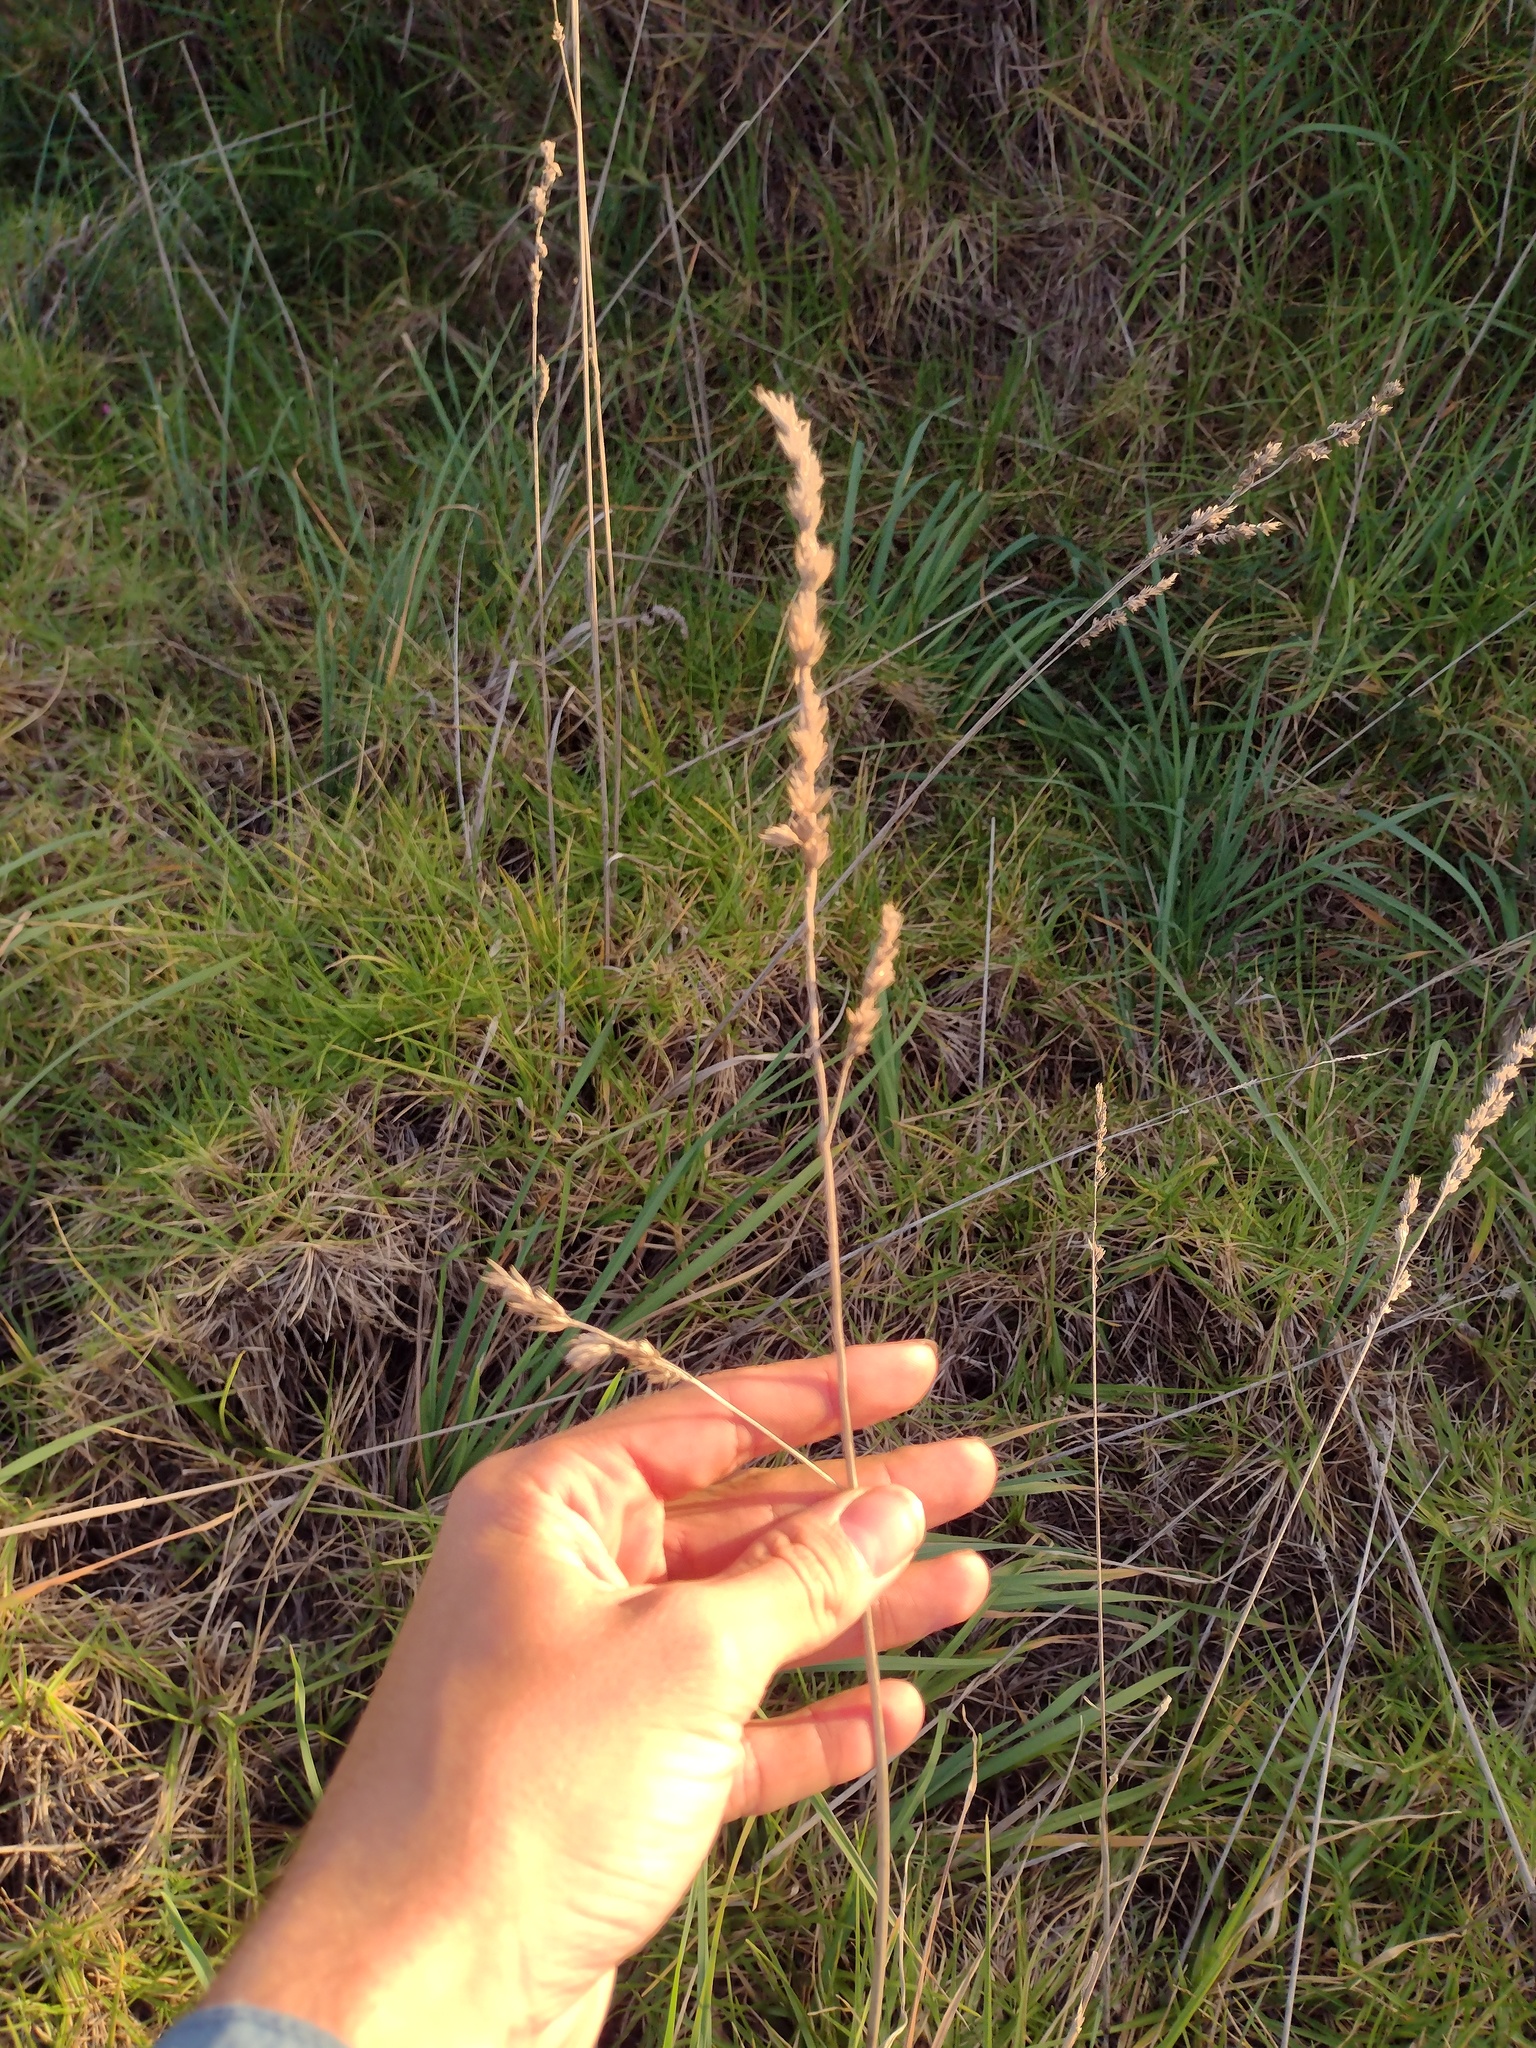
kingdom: Plantae
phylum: Tracheophyta
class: Liliopsida
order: Poales
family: Poaceae
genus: Dactylis
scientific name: Dactylis glomerata
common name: Orchardgrass
